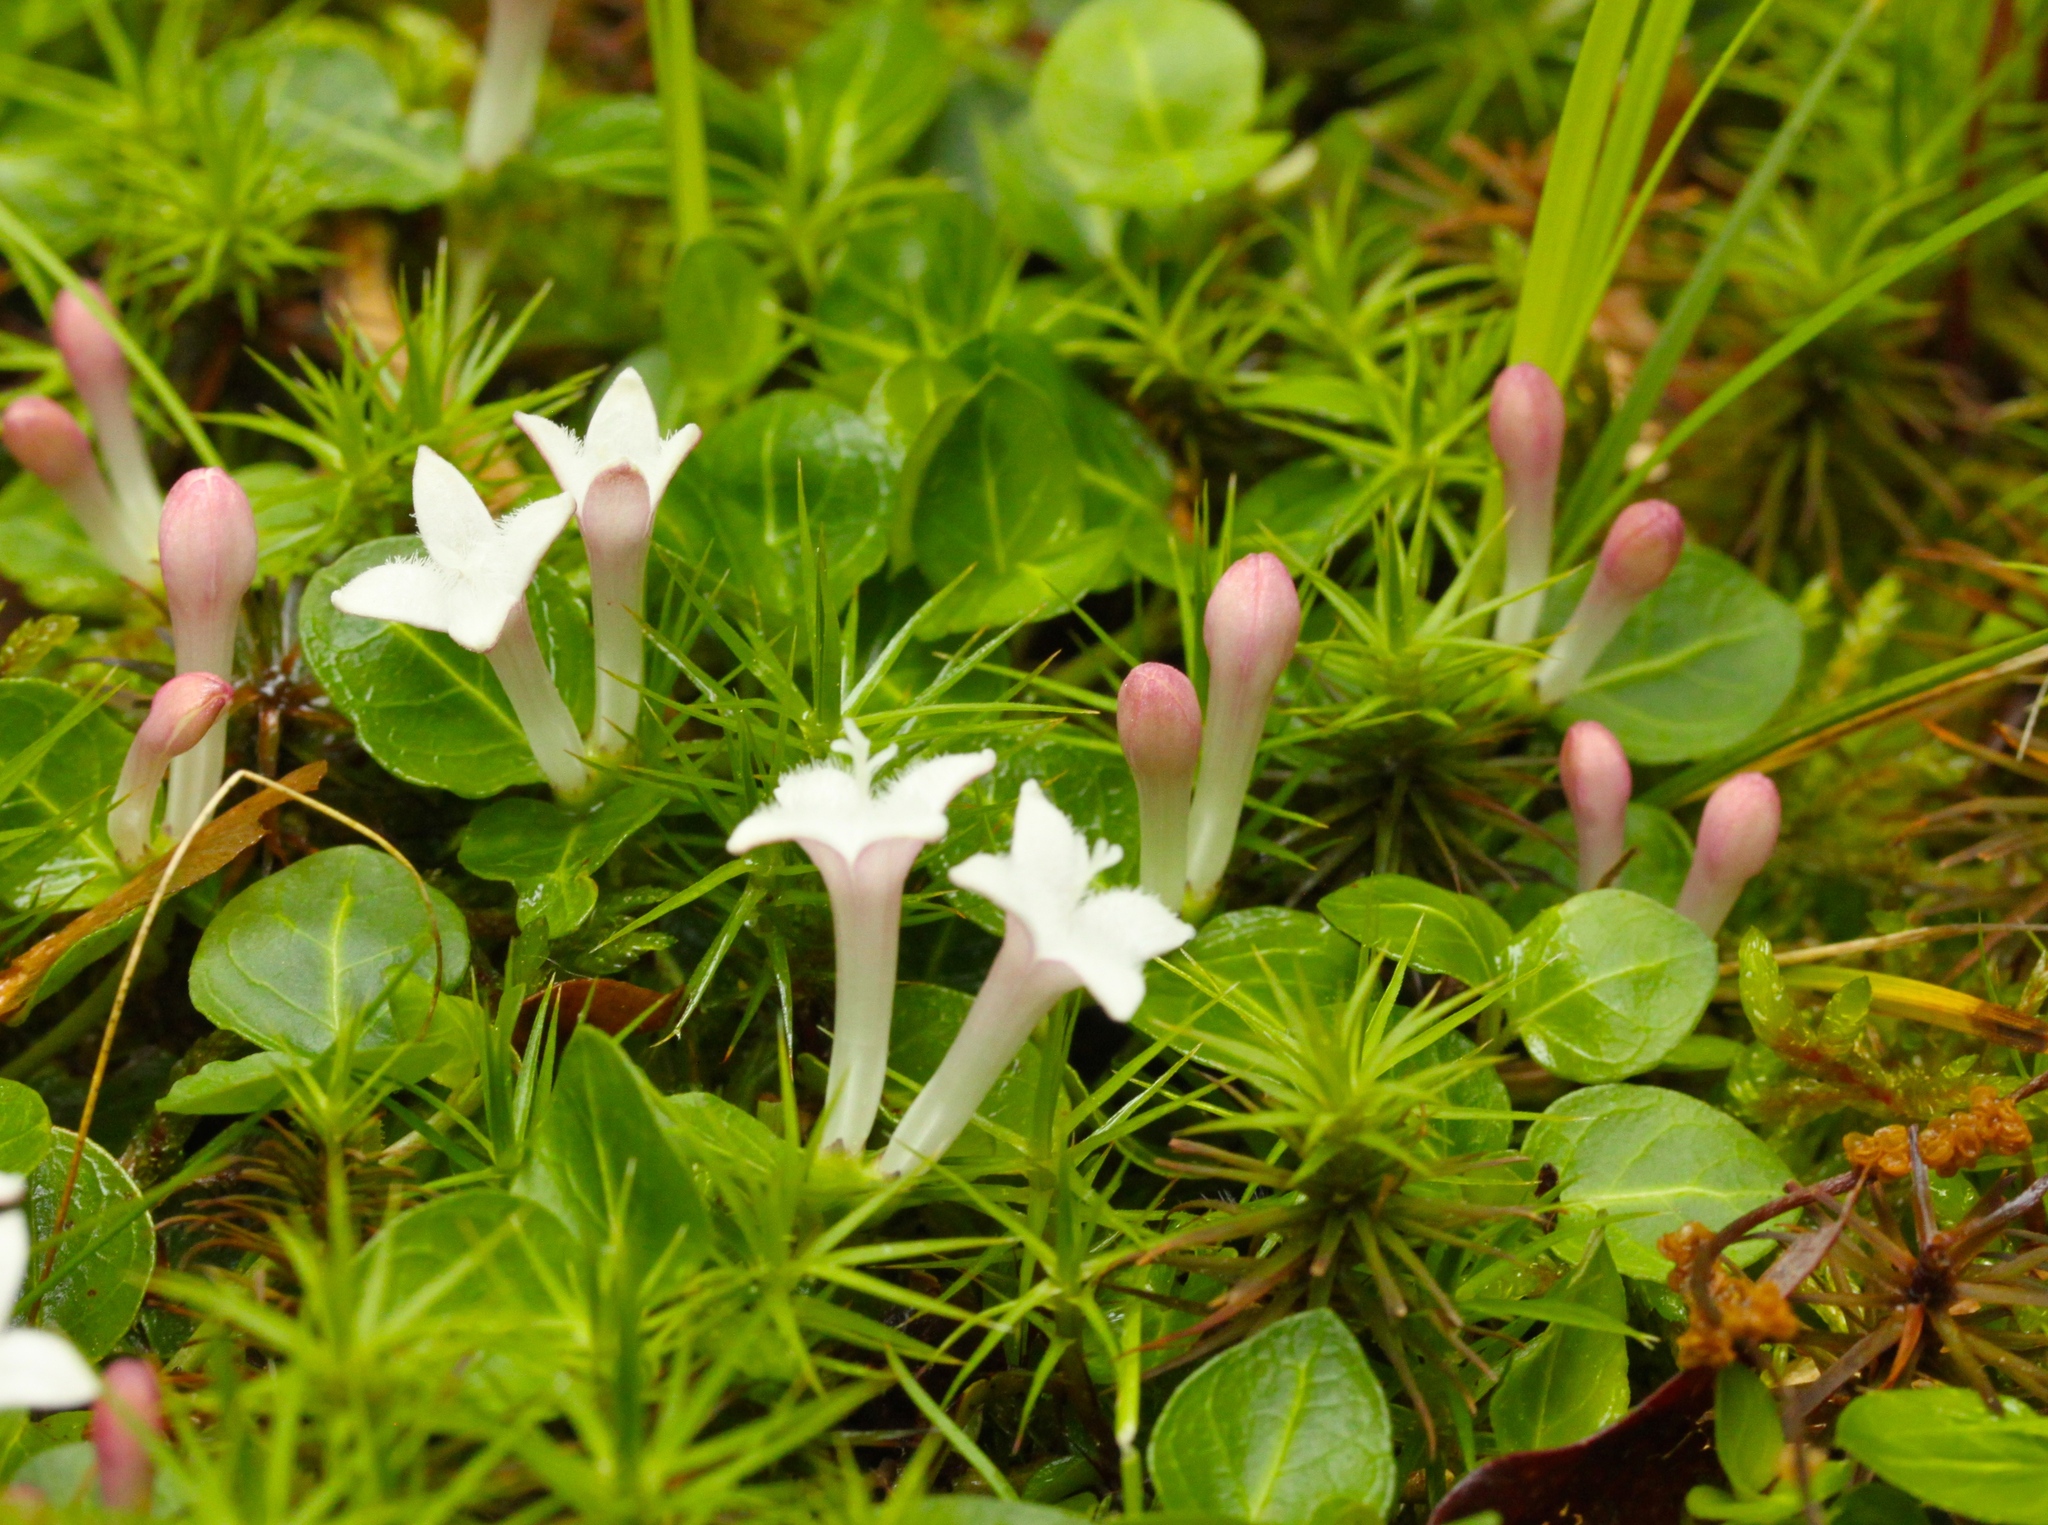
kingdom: Plantae
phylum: Tracheophyta
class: Magnoliopsida
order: Gentianales
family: Rubiaceae
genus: Mitchella
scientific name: Mitchella repens
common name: Partridge-berry
